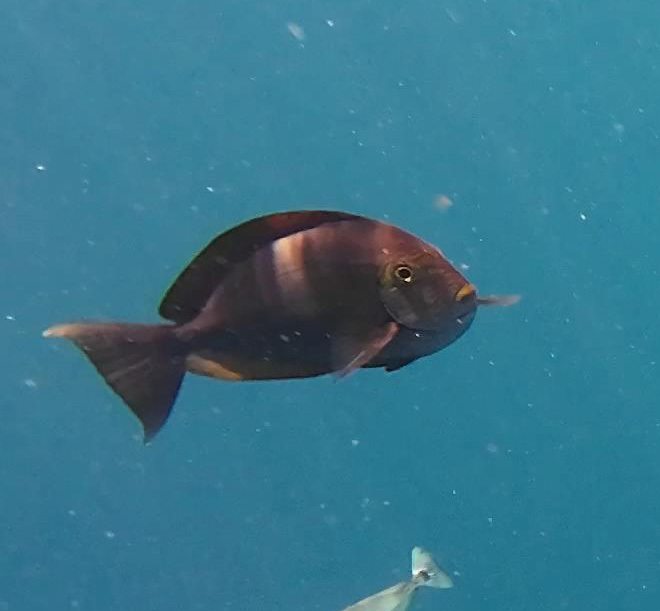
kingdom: Animalia
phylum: Chordata
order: Perciformes
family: Acanthuridae
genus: Acanthurus
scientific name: Acanthurus mata
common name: Bleeker's surgeonfish
